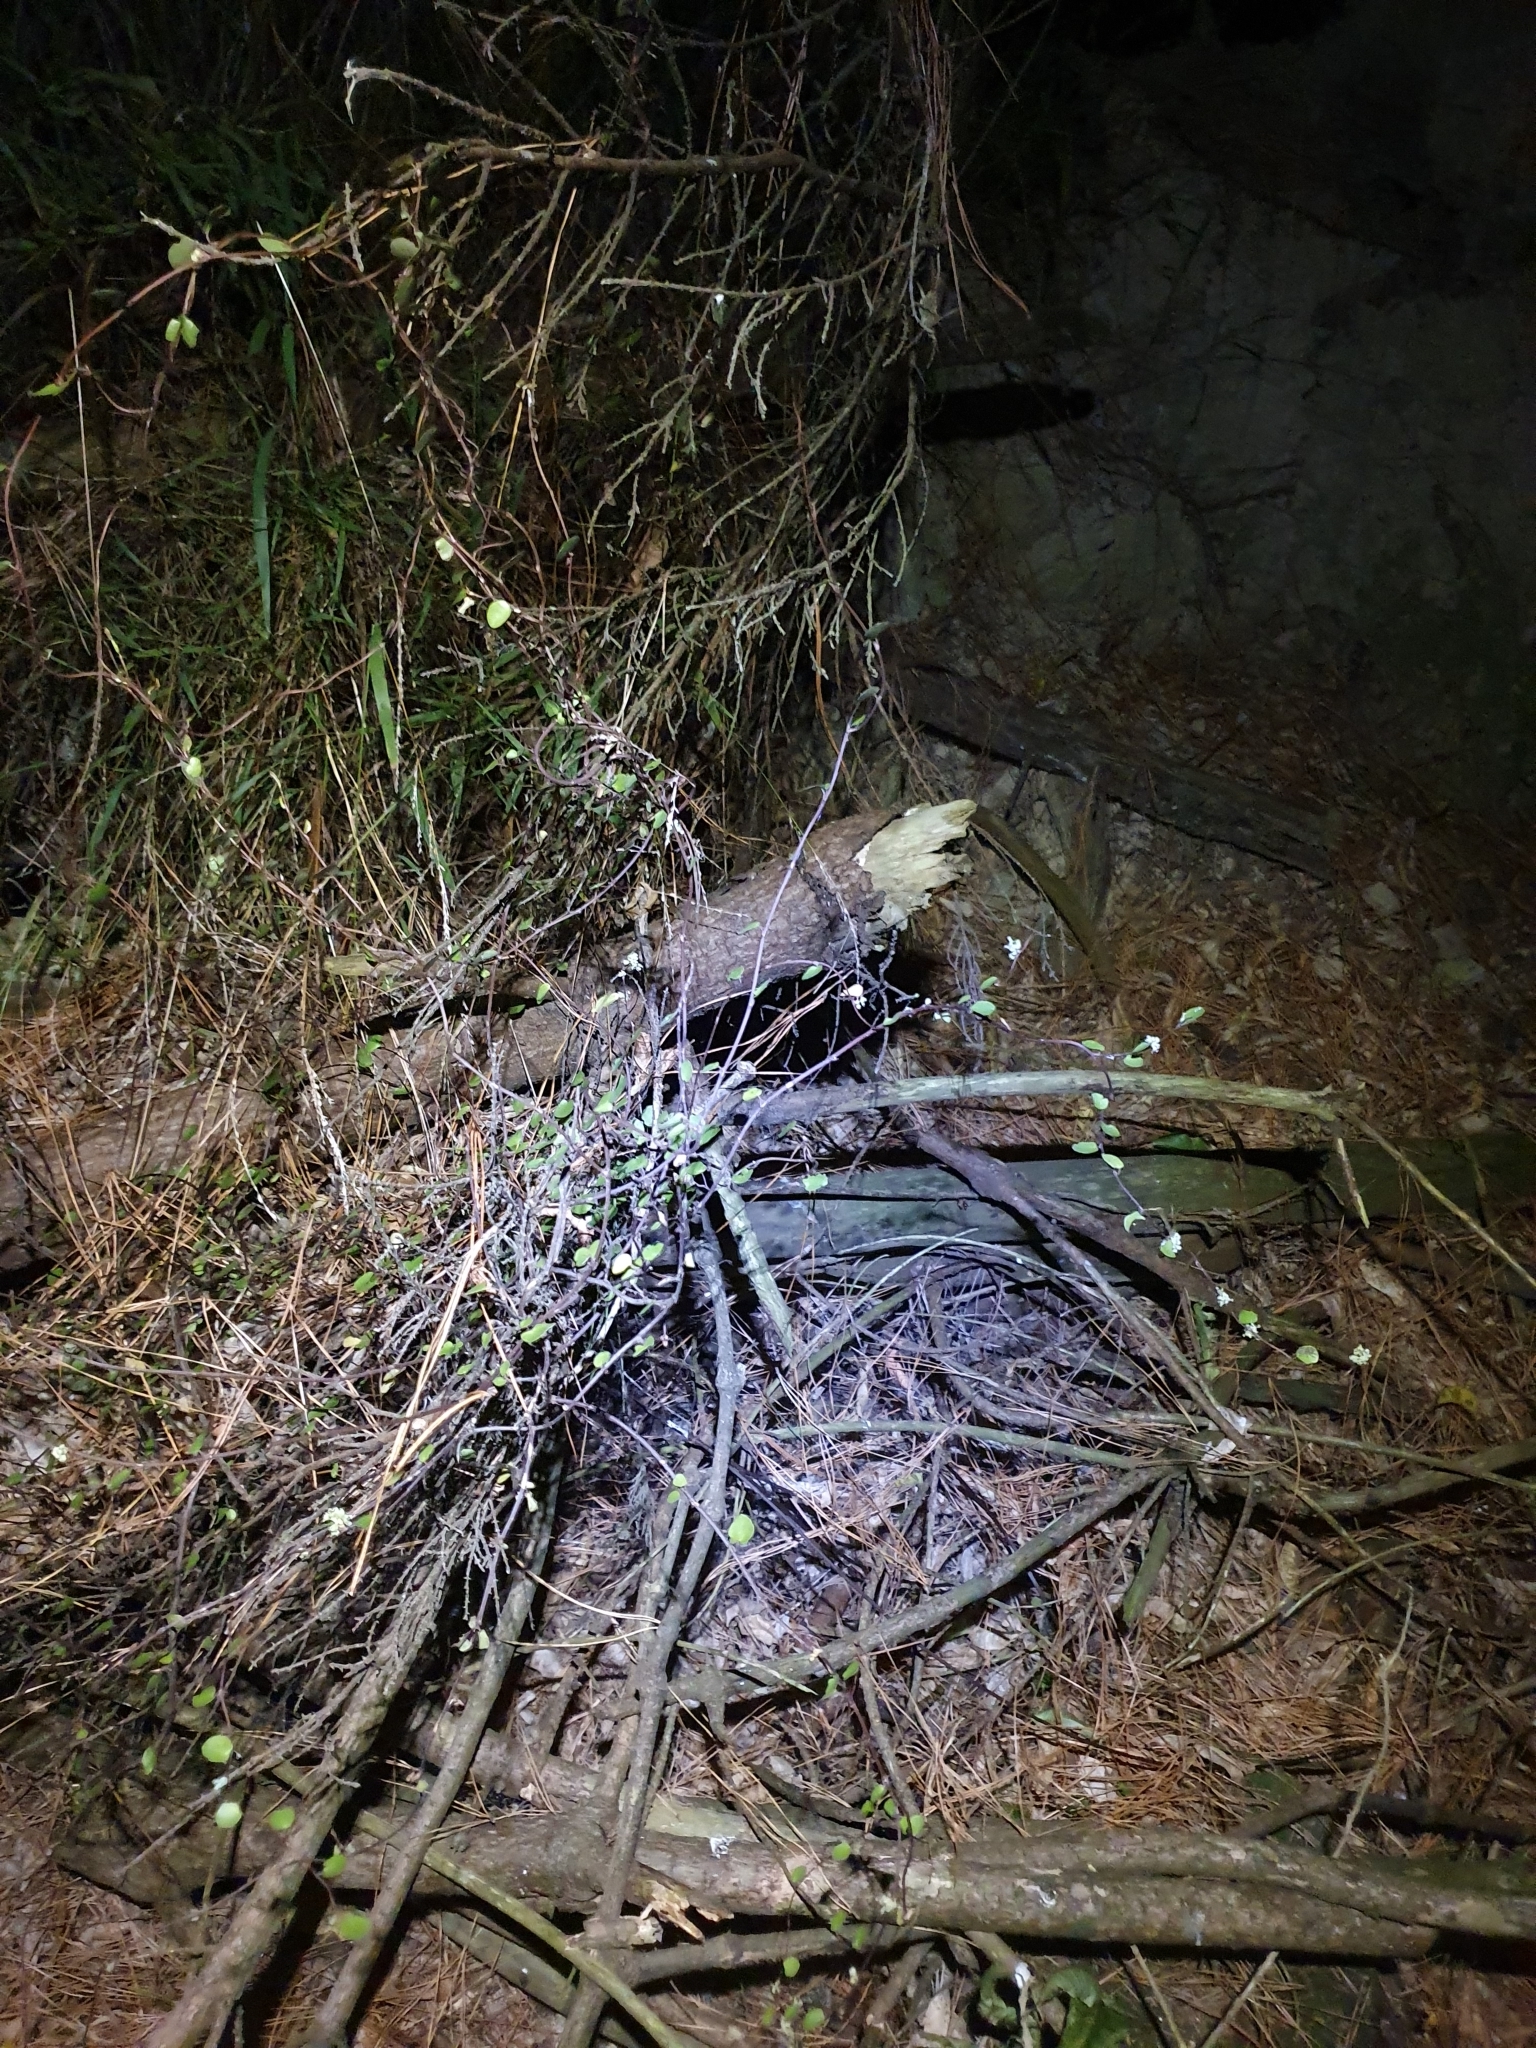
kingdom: Plantae
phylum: Tracheophyta
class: Magnoliopsida
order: Caryophyllales
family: Polygonaceae
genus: Muehlenbeckia
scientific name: Muehlenbeckia complexa
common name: Wireplant
